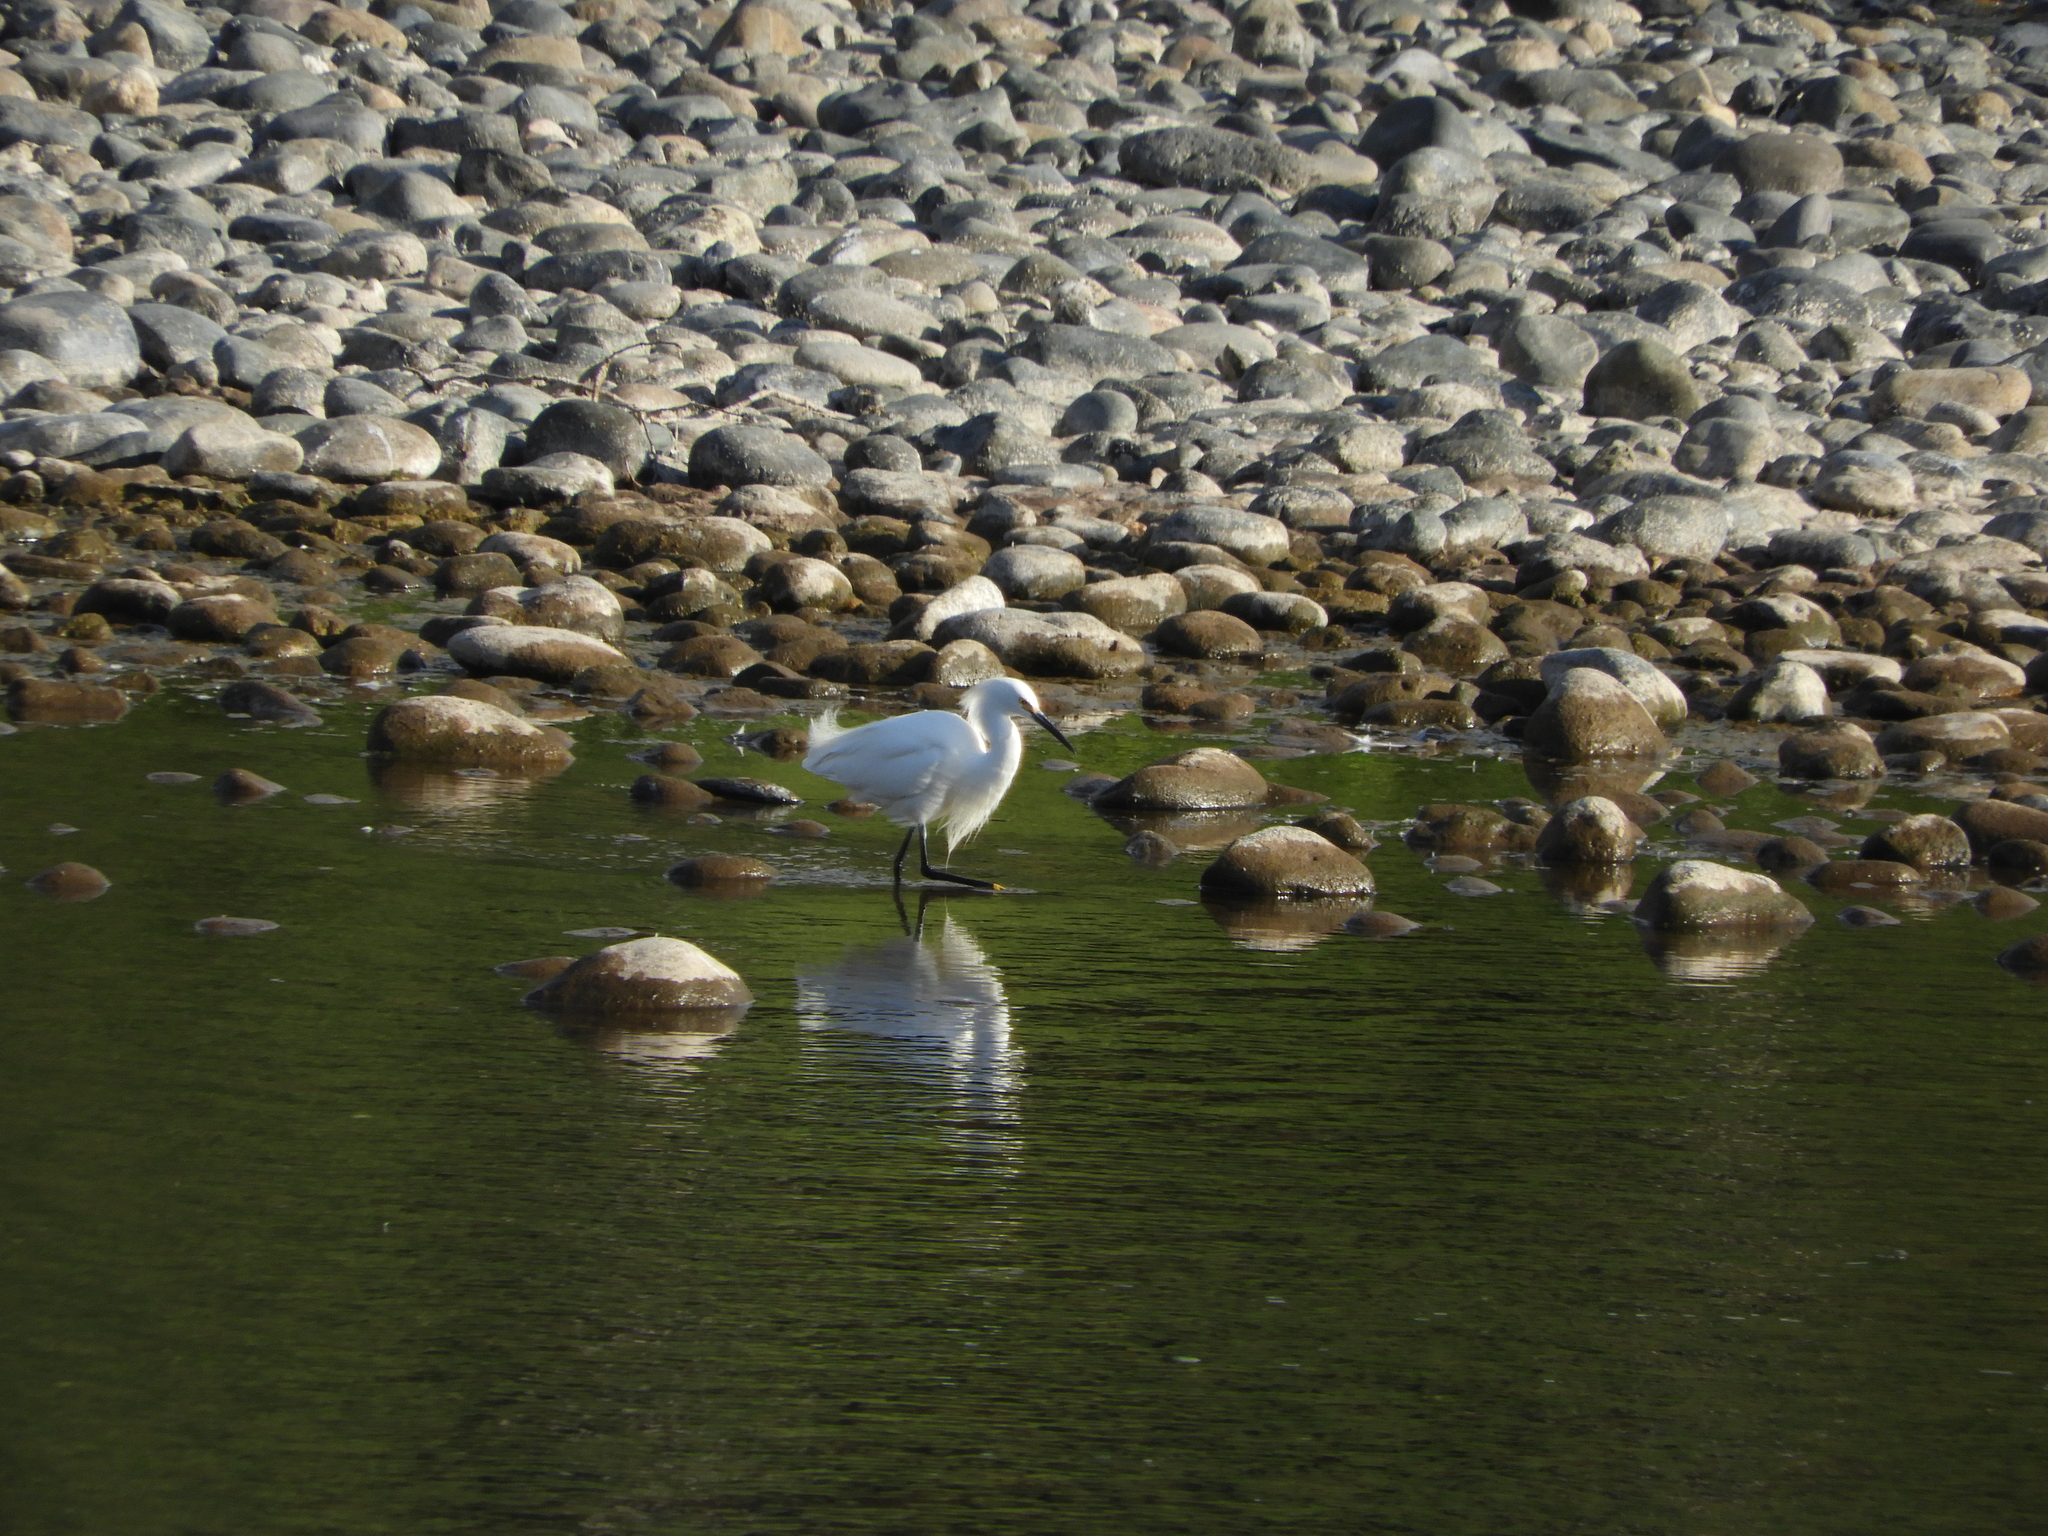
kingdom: Animalia
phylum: Chordata
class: Aves
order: Pelecaniformes
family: Ardeidae
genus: Egretta
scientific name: Egretta thula
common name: Snowy egret
